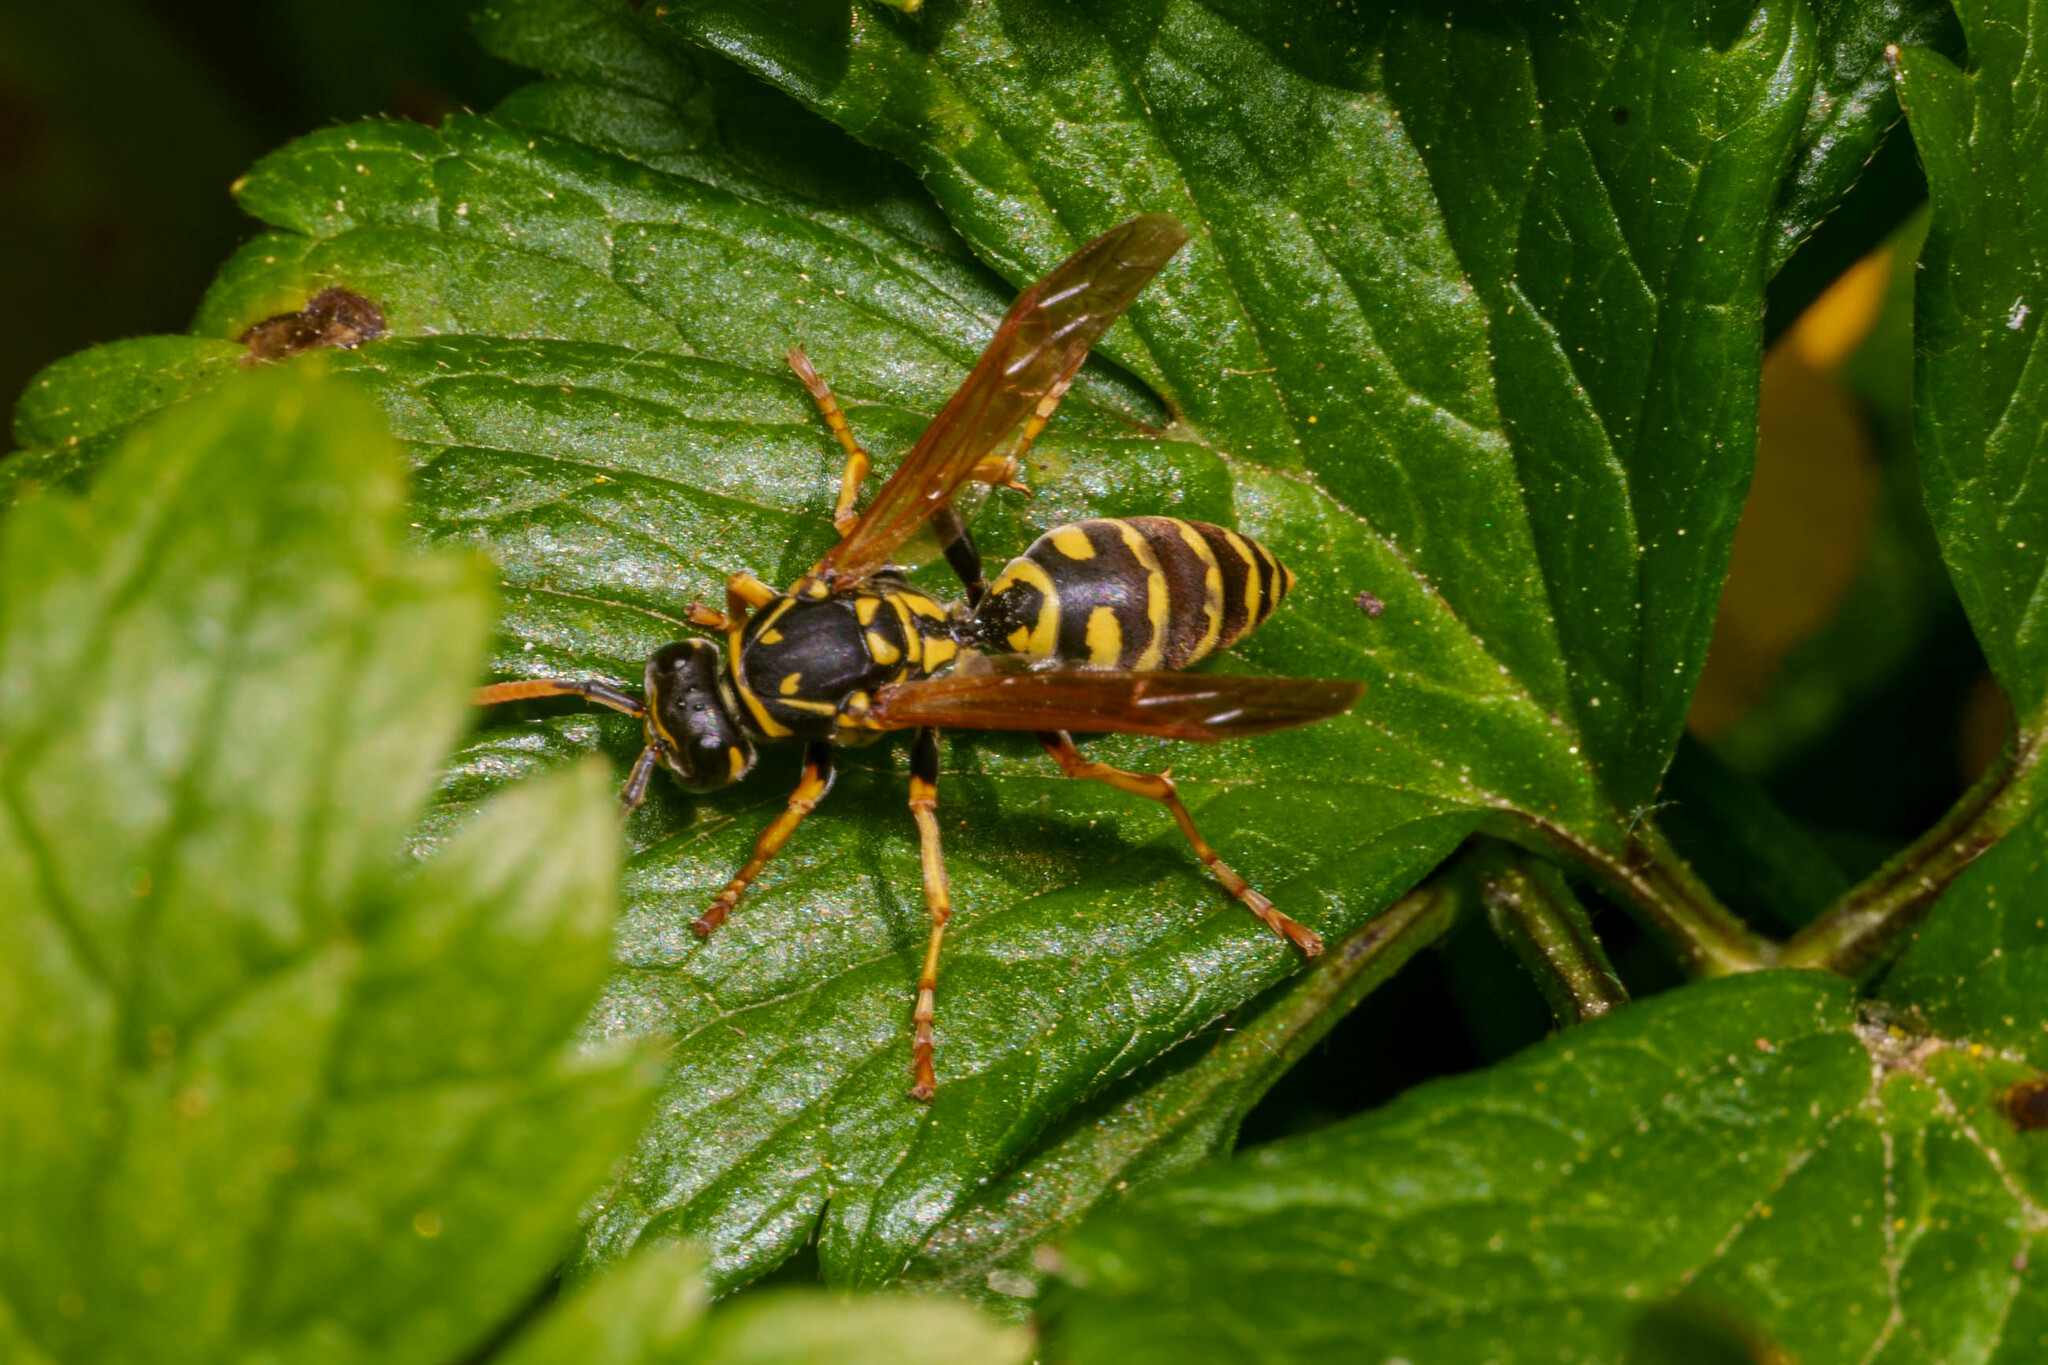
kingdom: Animalia
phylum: Arthropoda
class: Insecta
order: Hymenoptera
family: Eumenidae
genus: Polistes
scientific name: Polistes dominula
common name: Paper wasp
